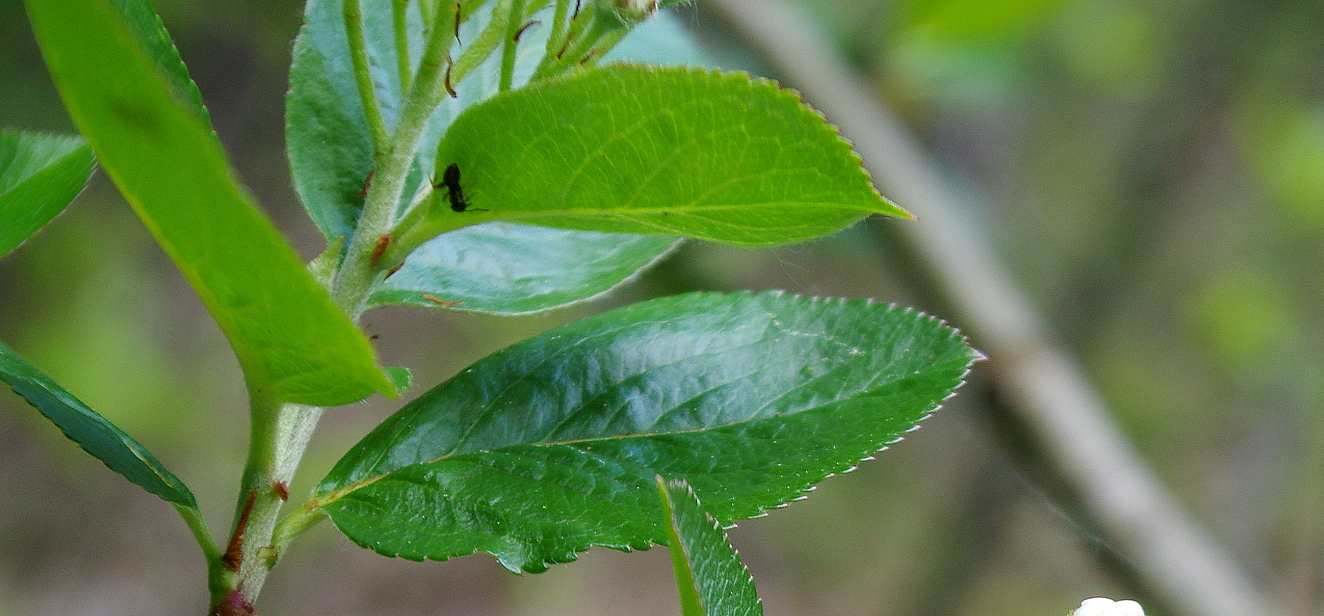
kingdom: Plantae
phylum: Tracheophyta
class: Magnoliopsida
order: Rosales
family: Rosaceae
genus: Sorbaronia
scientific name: Sorbaronia arsenii
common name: Arsène's mountain-ash
